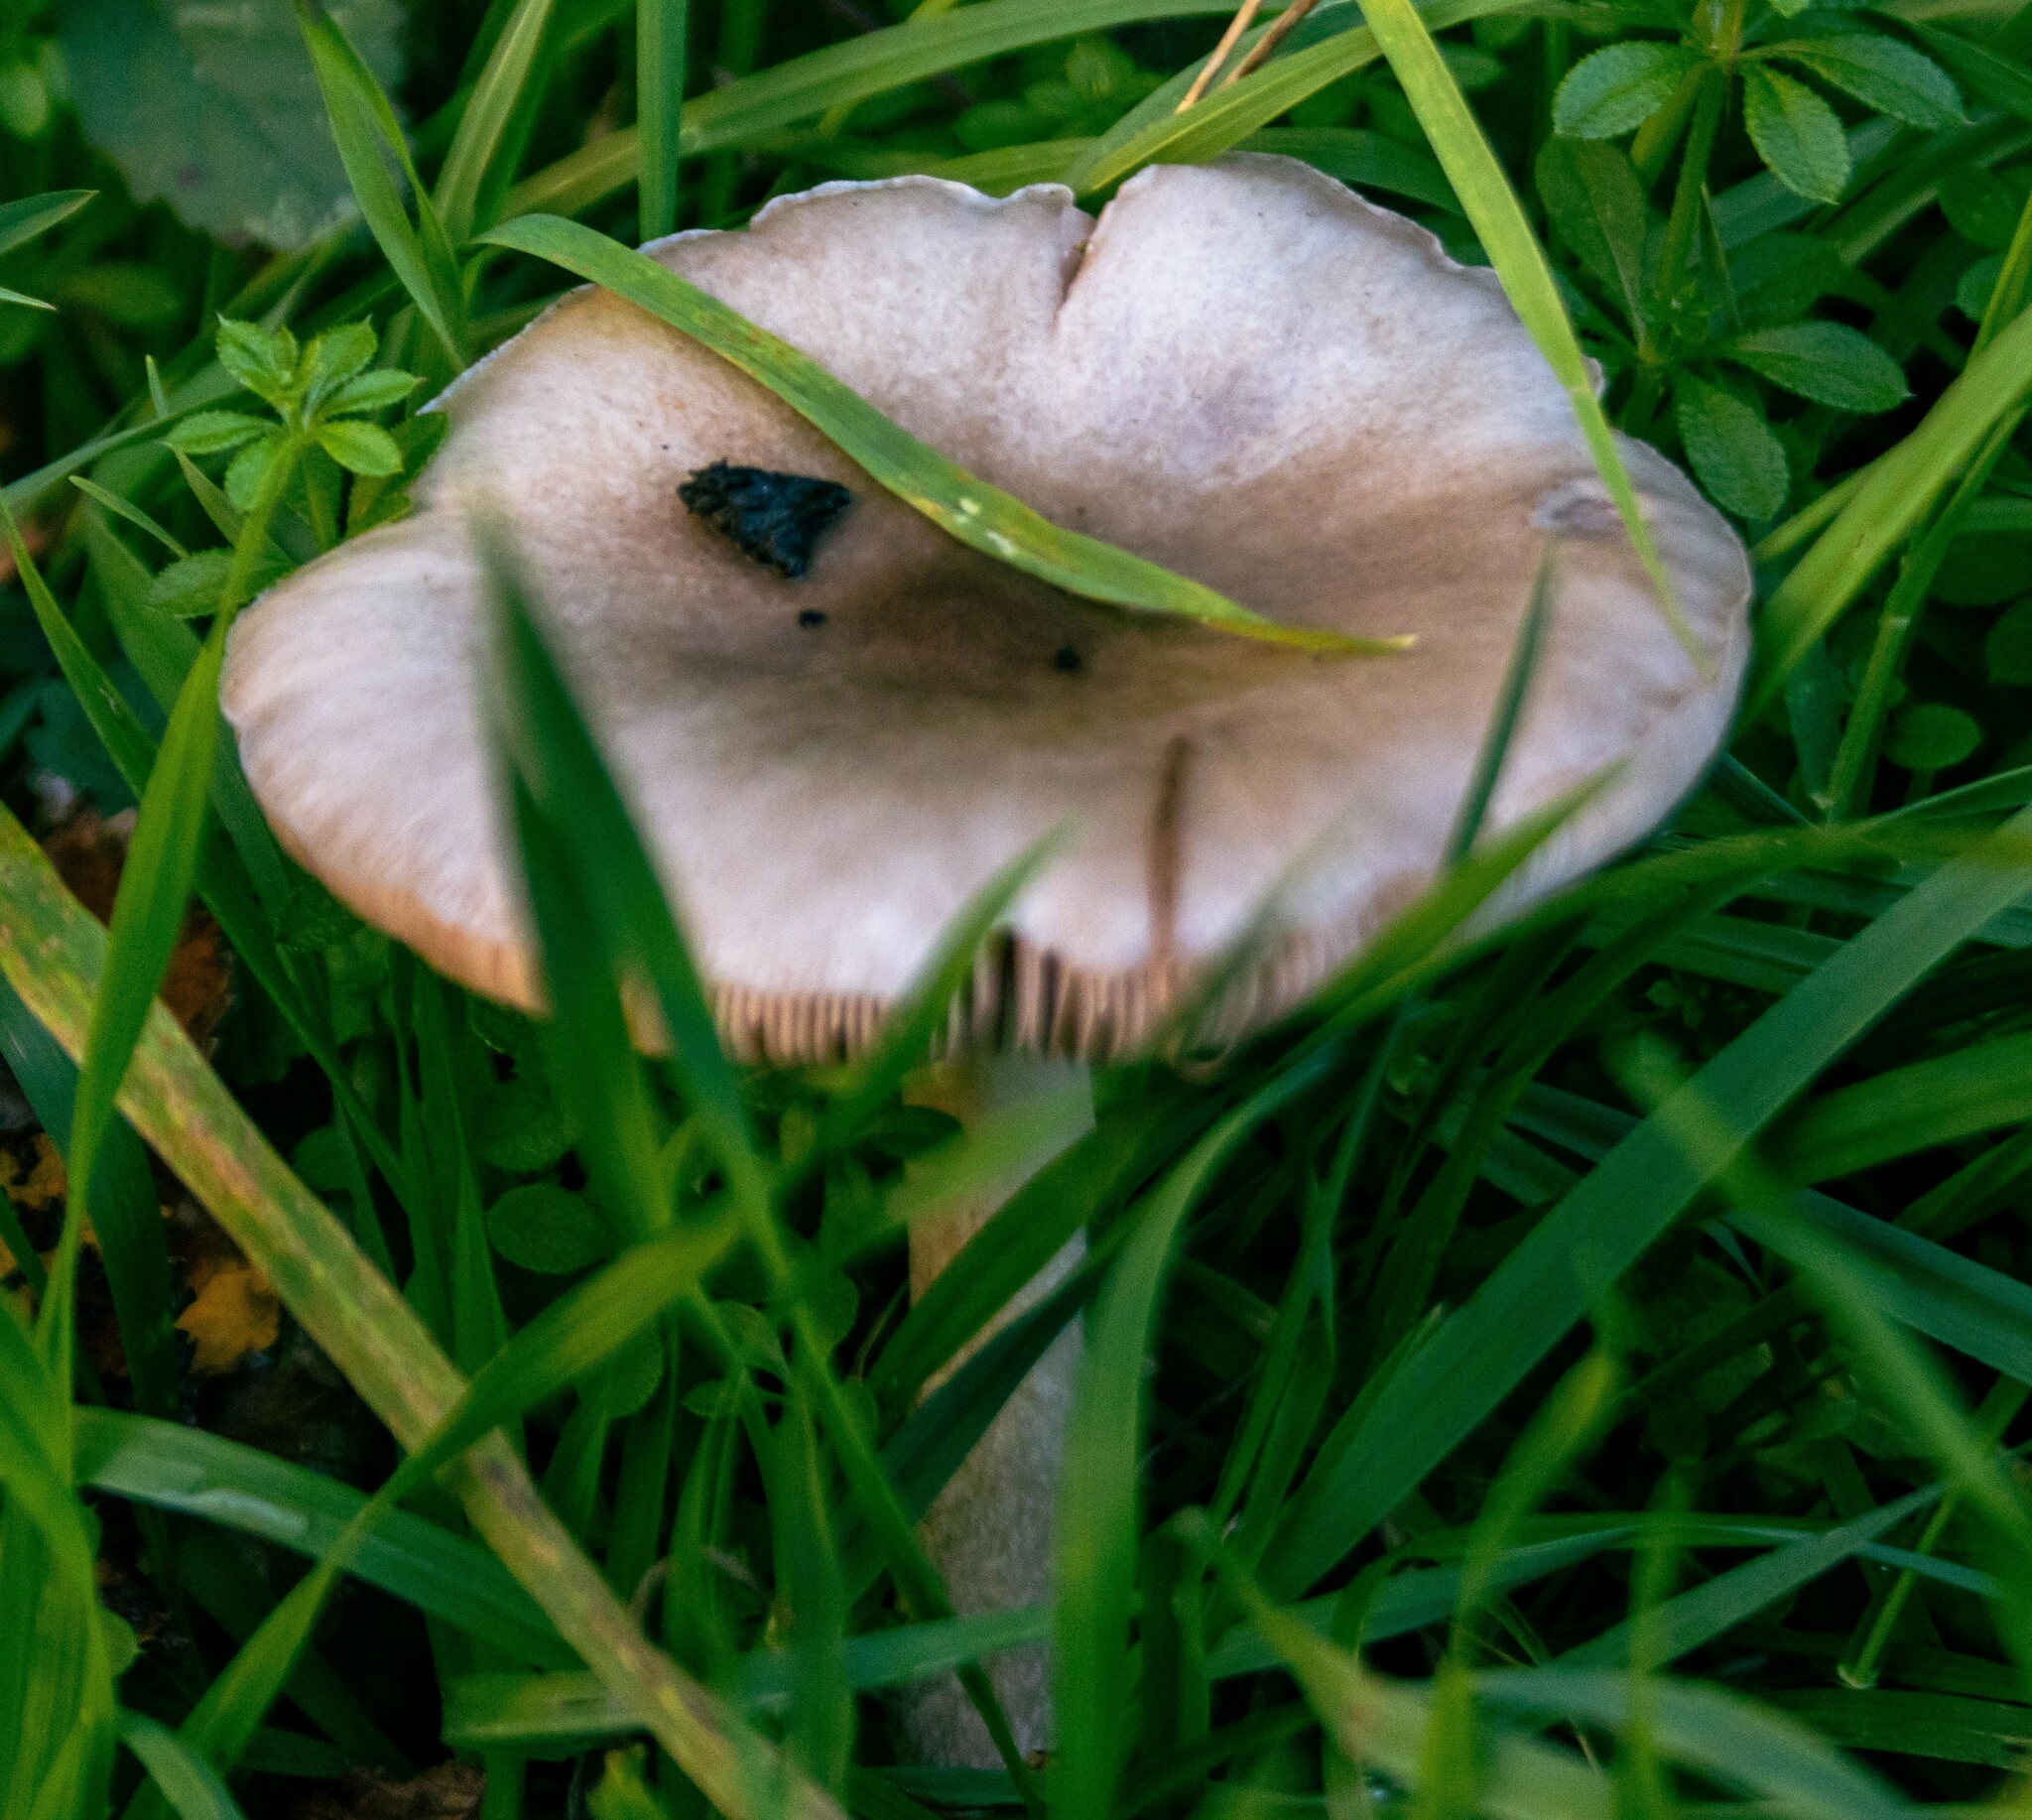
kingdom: Fungi
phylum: Basidiomycota
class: Agaricomycetes
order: Agaricales
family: Pluteaceae
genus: Volvopluteus
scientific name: Volvopluteus gloiocephalus
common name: Stubble rosegill
